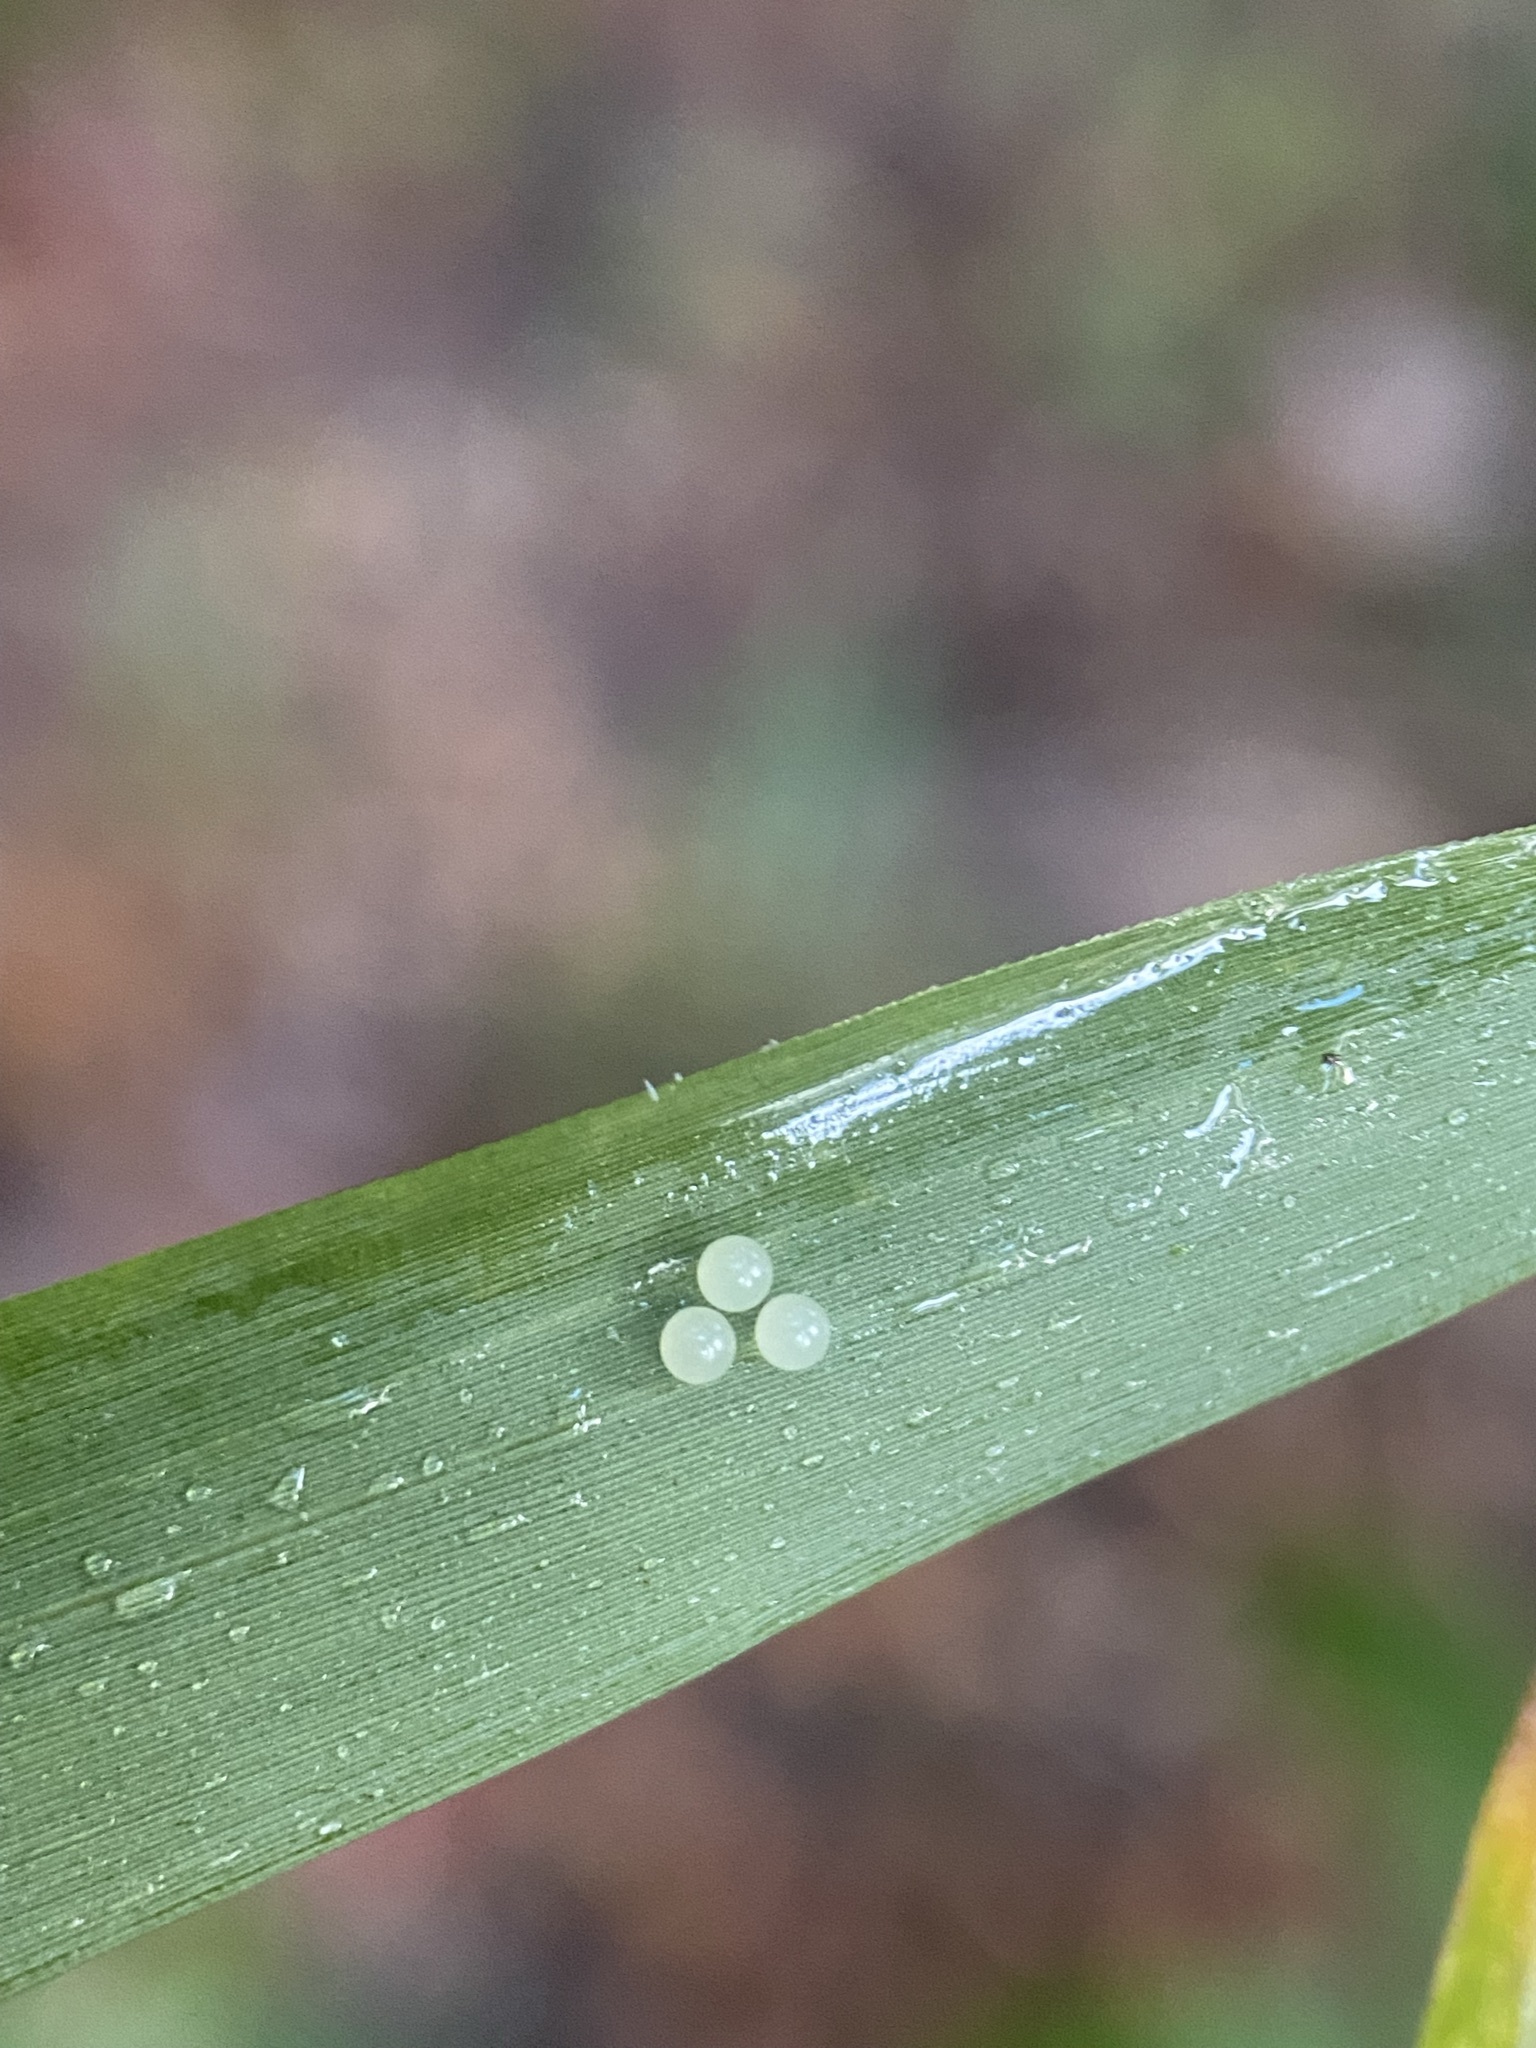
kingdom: Animalia
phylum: Arthropoda
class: Insecta
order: Lepidoptera
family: Nymphalidae
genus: Enodia
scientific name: Enodia portlandia
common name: Southern pearly-eye
